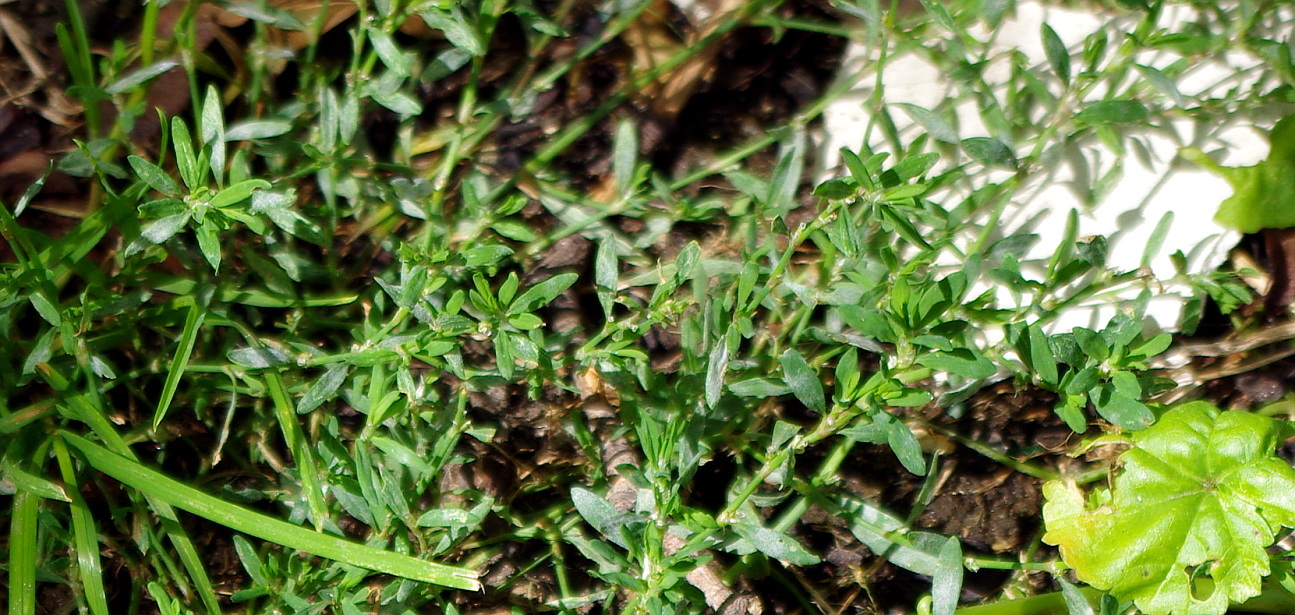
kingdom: Plantae
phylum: Tracheophyta
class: Magnoliopsida
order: Caryophyllales
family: Polygonaceae
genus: Polygonum
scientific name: Polygonum
